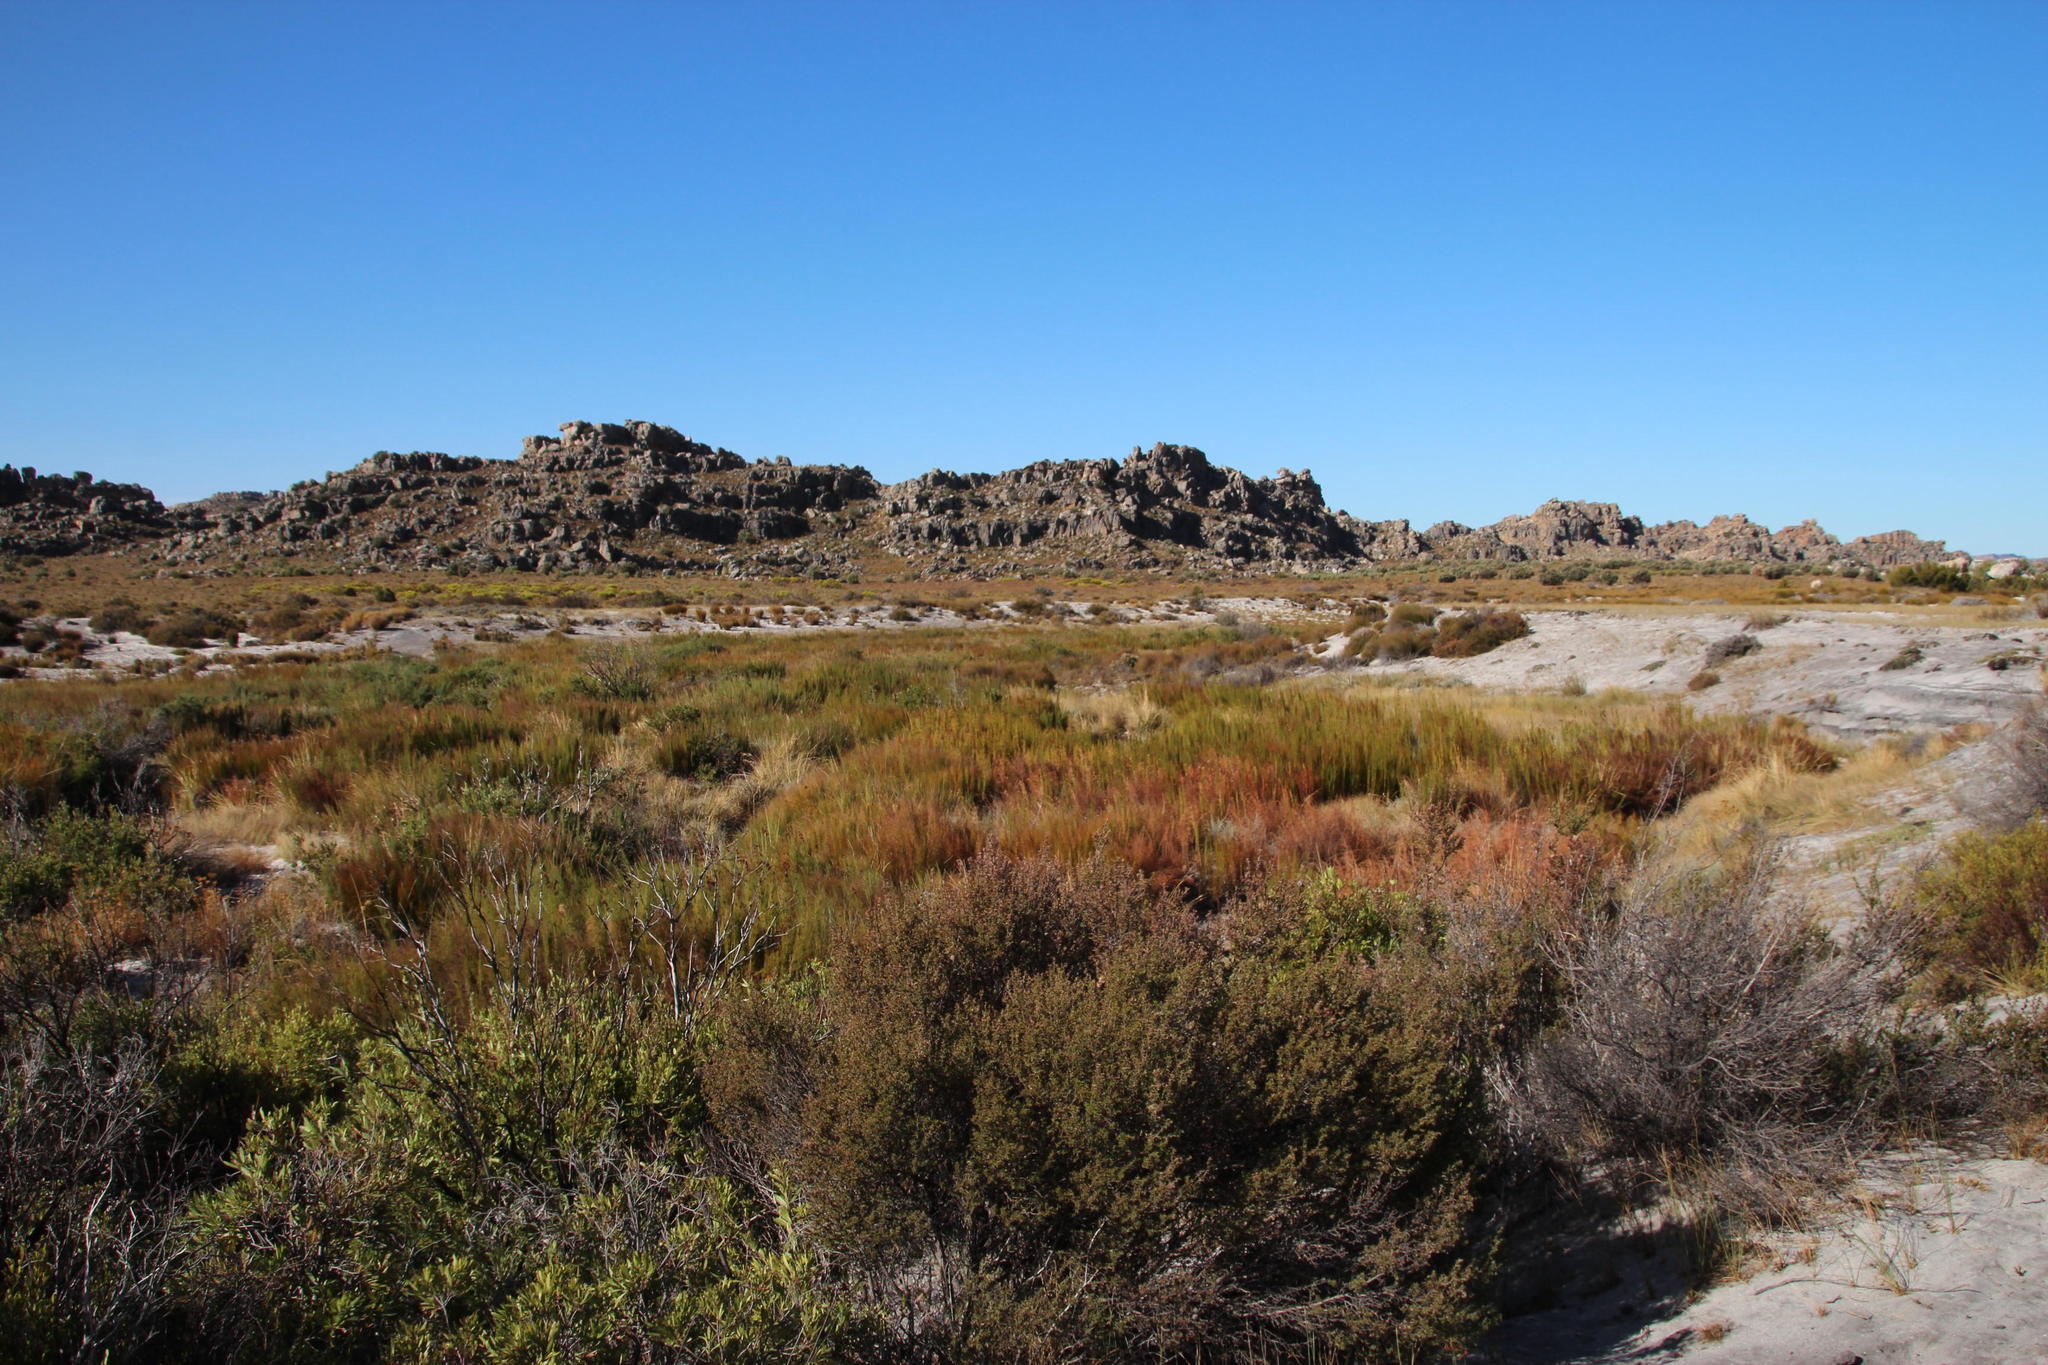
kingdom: Plantae
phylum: Tracheophyta
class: Liliopsida
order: Poales
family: Restionaceae
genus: Rhodocoma
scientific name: Rhodocoma capensis
